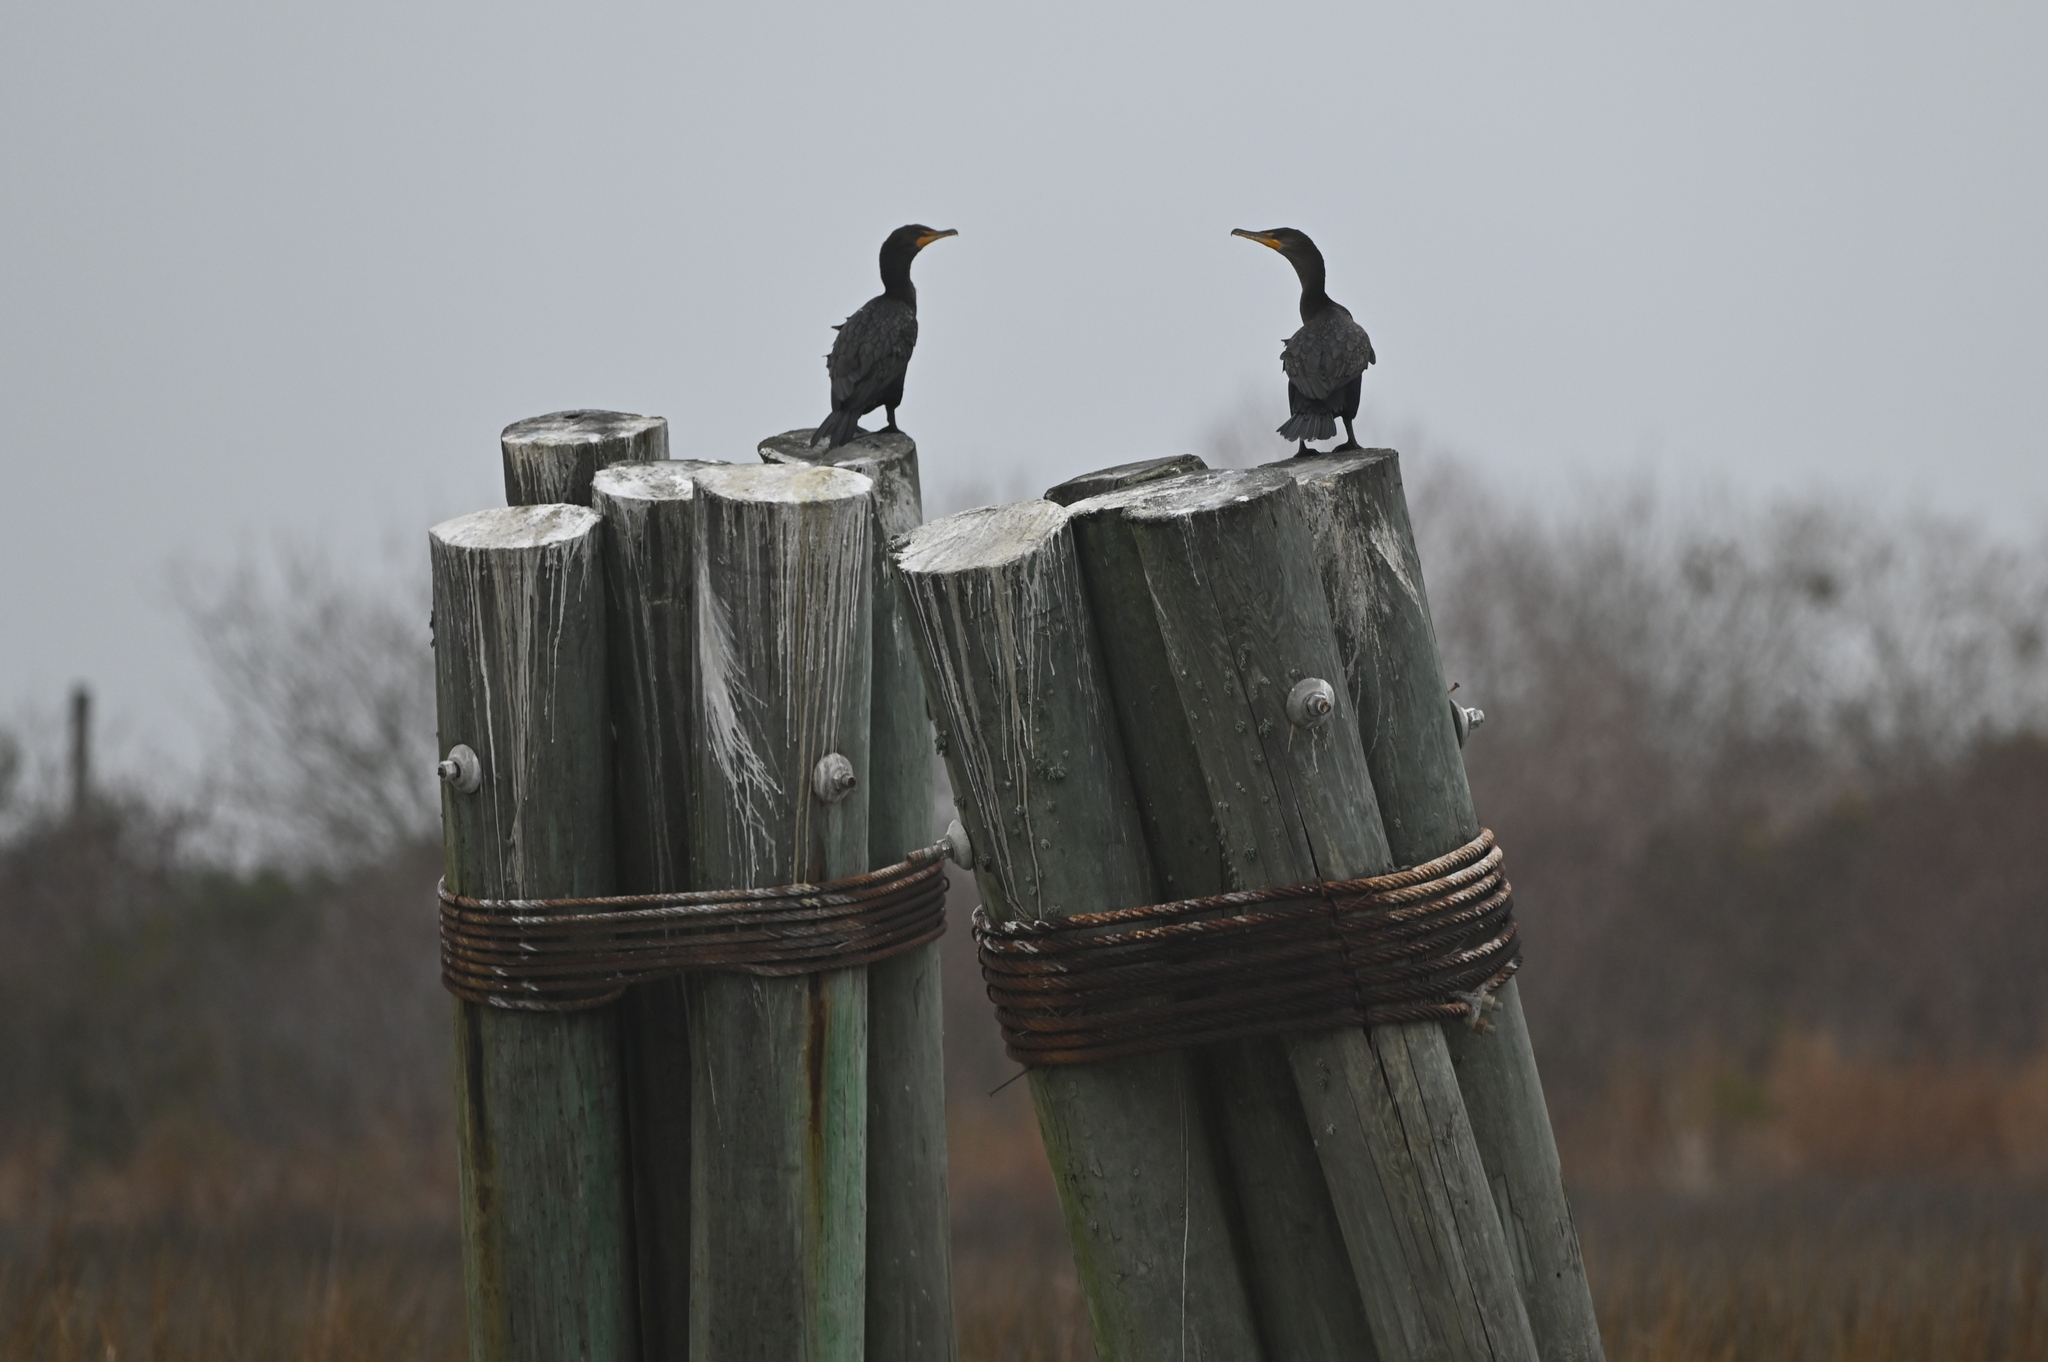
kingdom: Animalia
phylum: Chordata
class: Aves
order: Suliformes
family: Phalacrocoracidae
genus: Phalacrocorax
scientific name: Phalacrocorax auritus
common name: Double-crested cormorant
